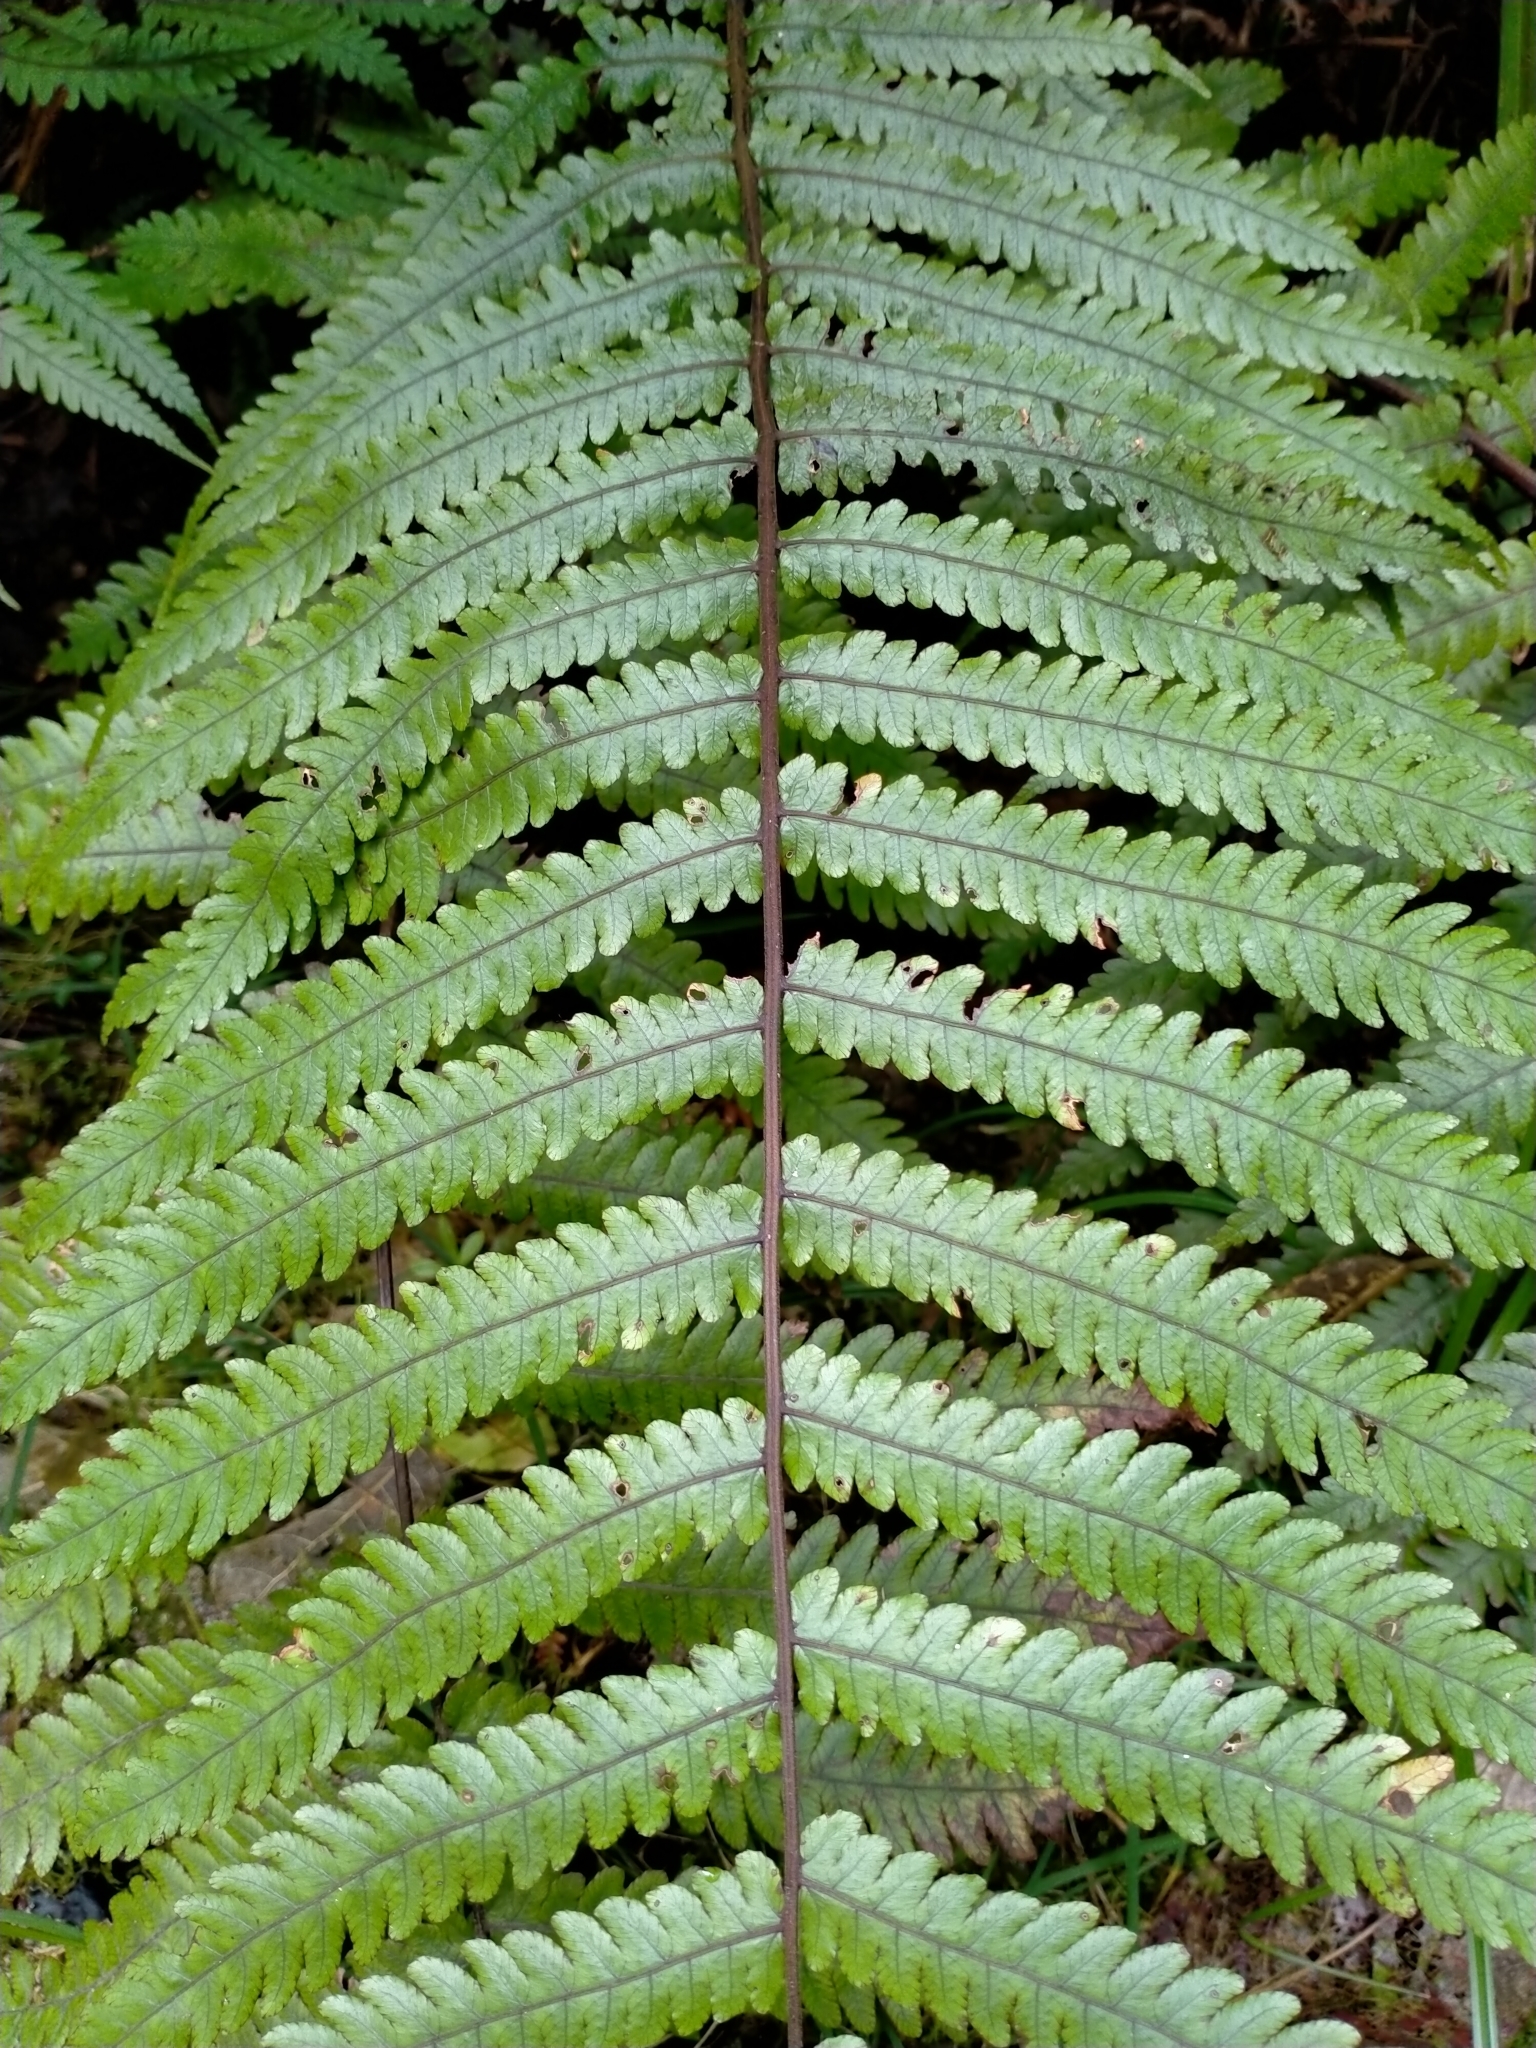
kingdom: Plantae
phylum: Tracheophyta
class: Polypodiopsida
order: Polypodiales
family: Thelypteridaceae
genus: Pakau
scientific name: Pakau pennigera
